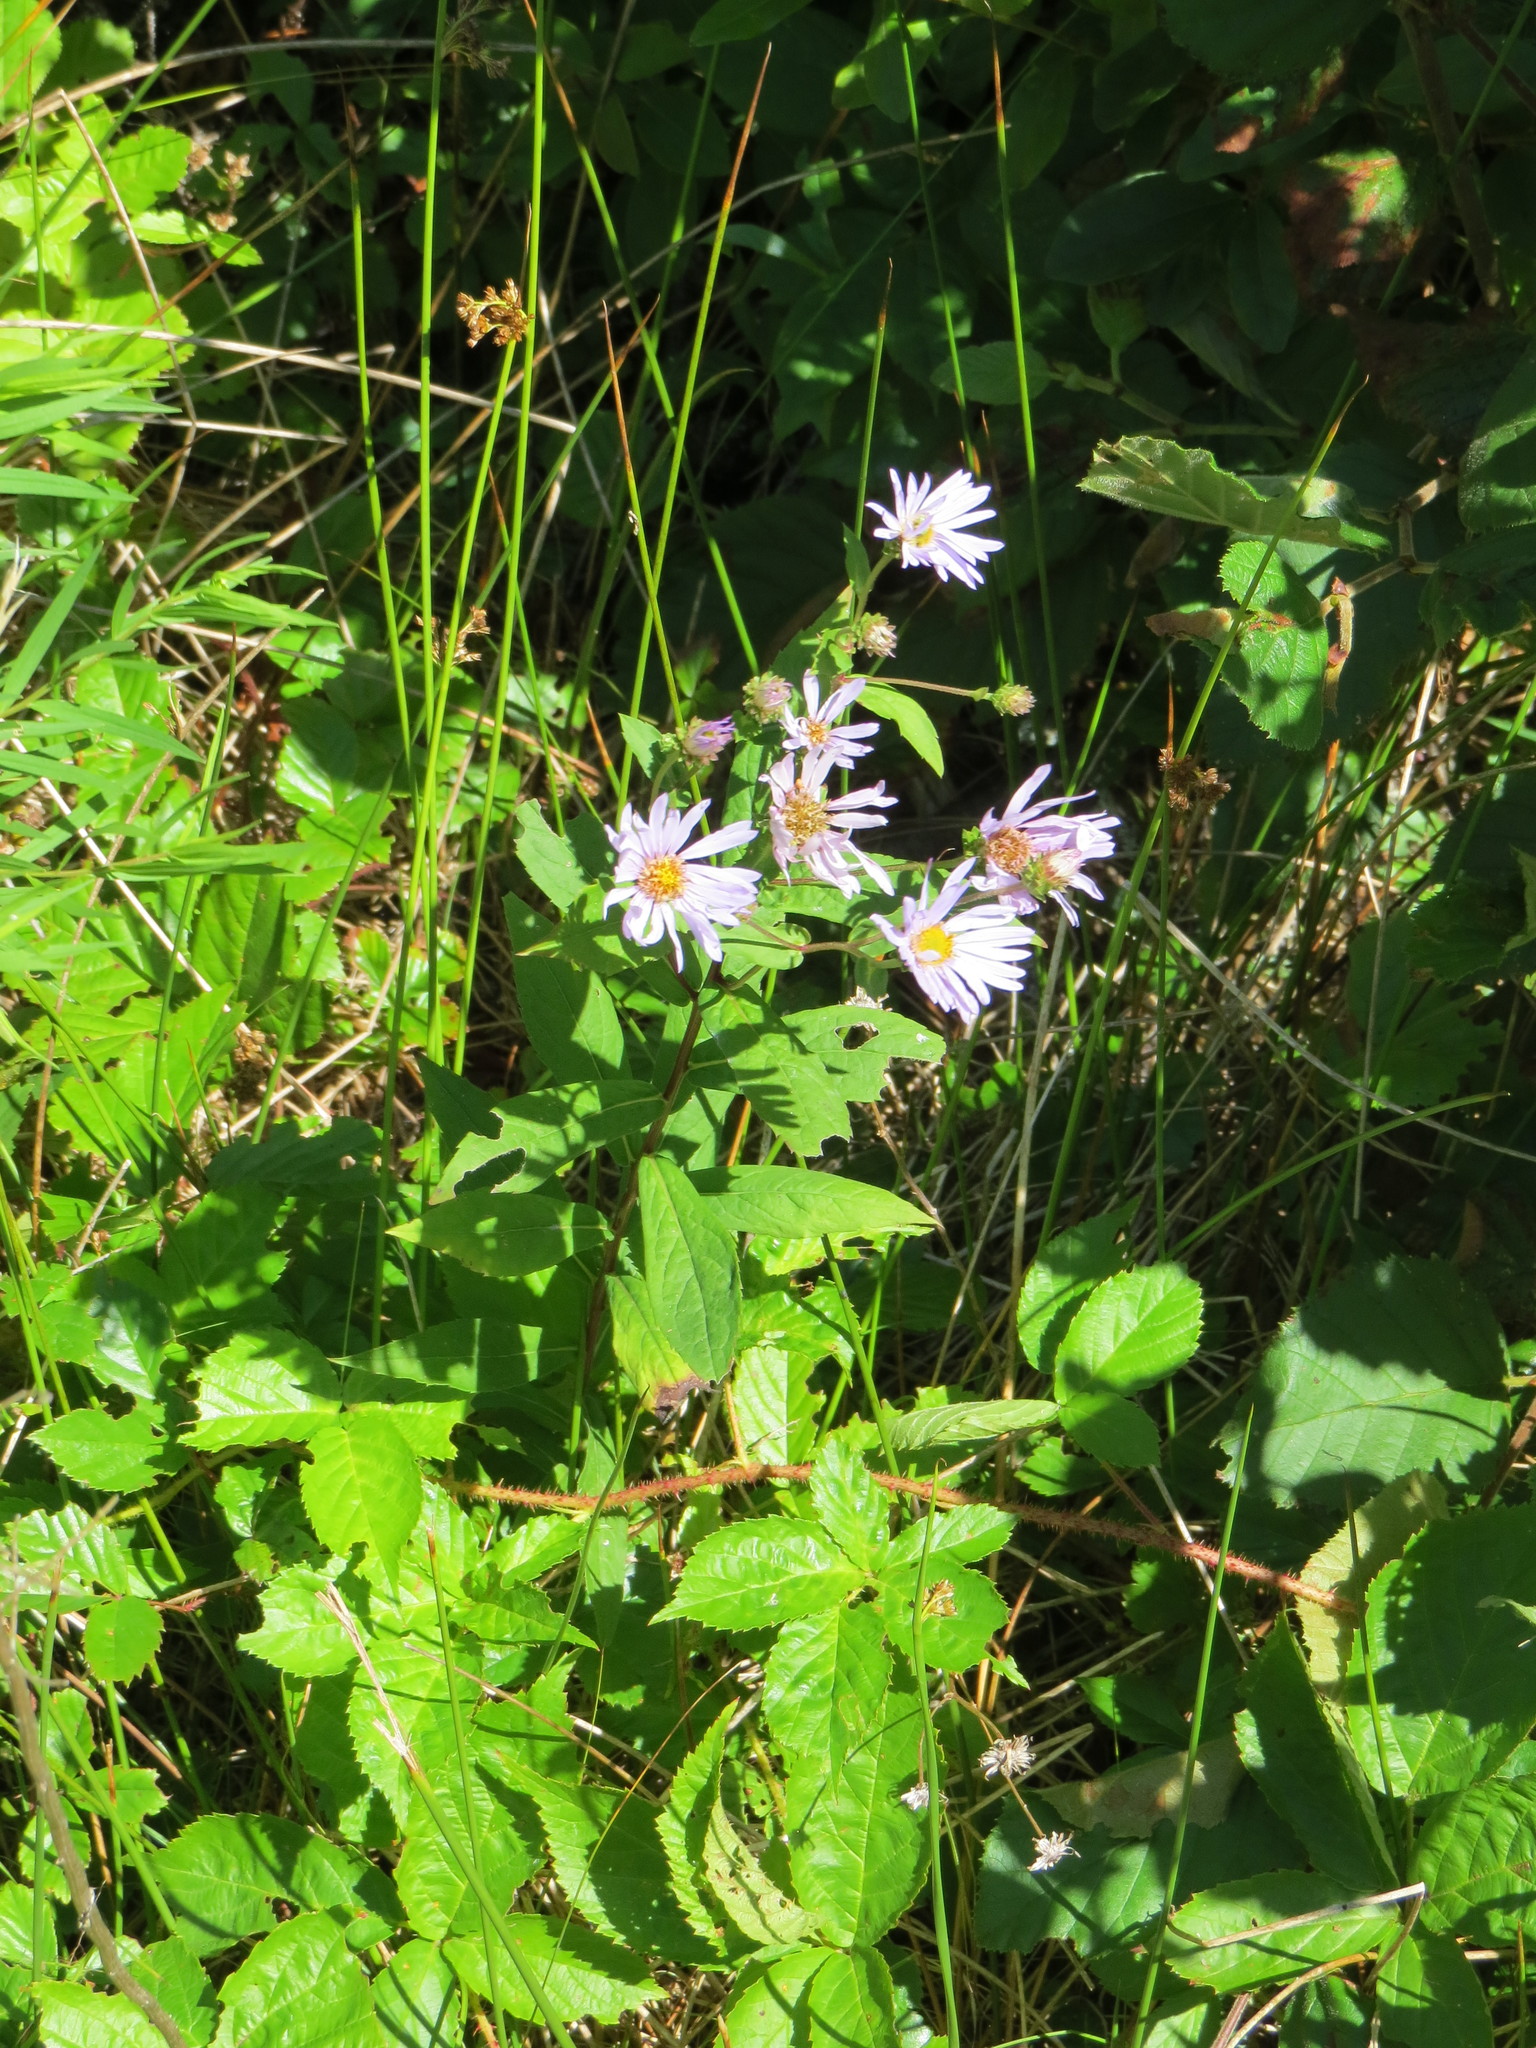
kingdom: Plantae
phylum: Tracheophyta
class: Magnoliopsida
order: Asterales
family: Asteraceae
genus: Eurybia
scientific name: Eurybia radula
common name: Low rough aster
